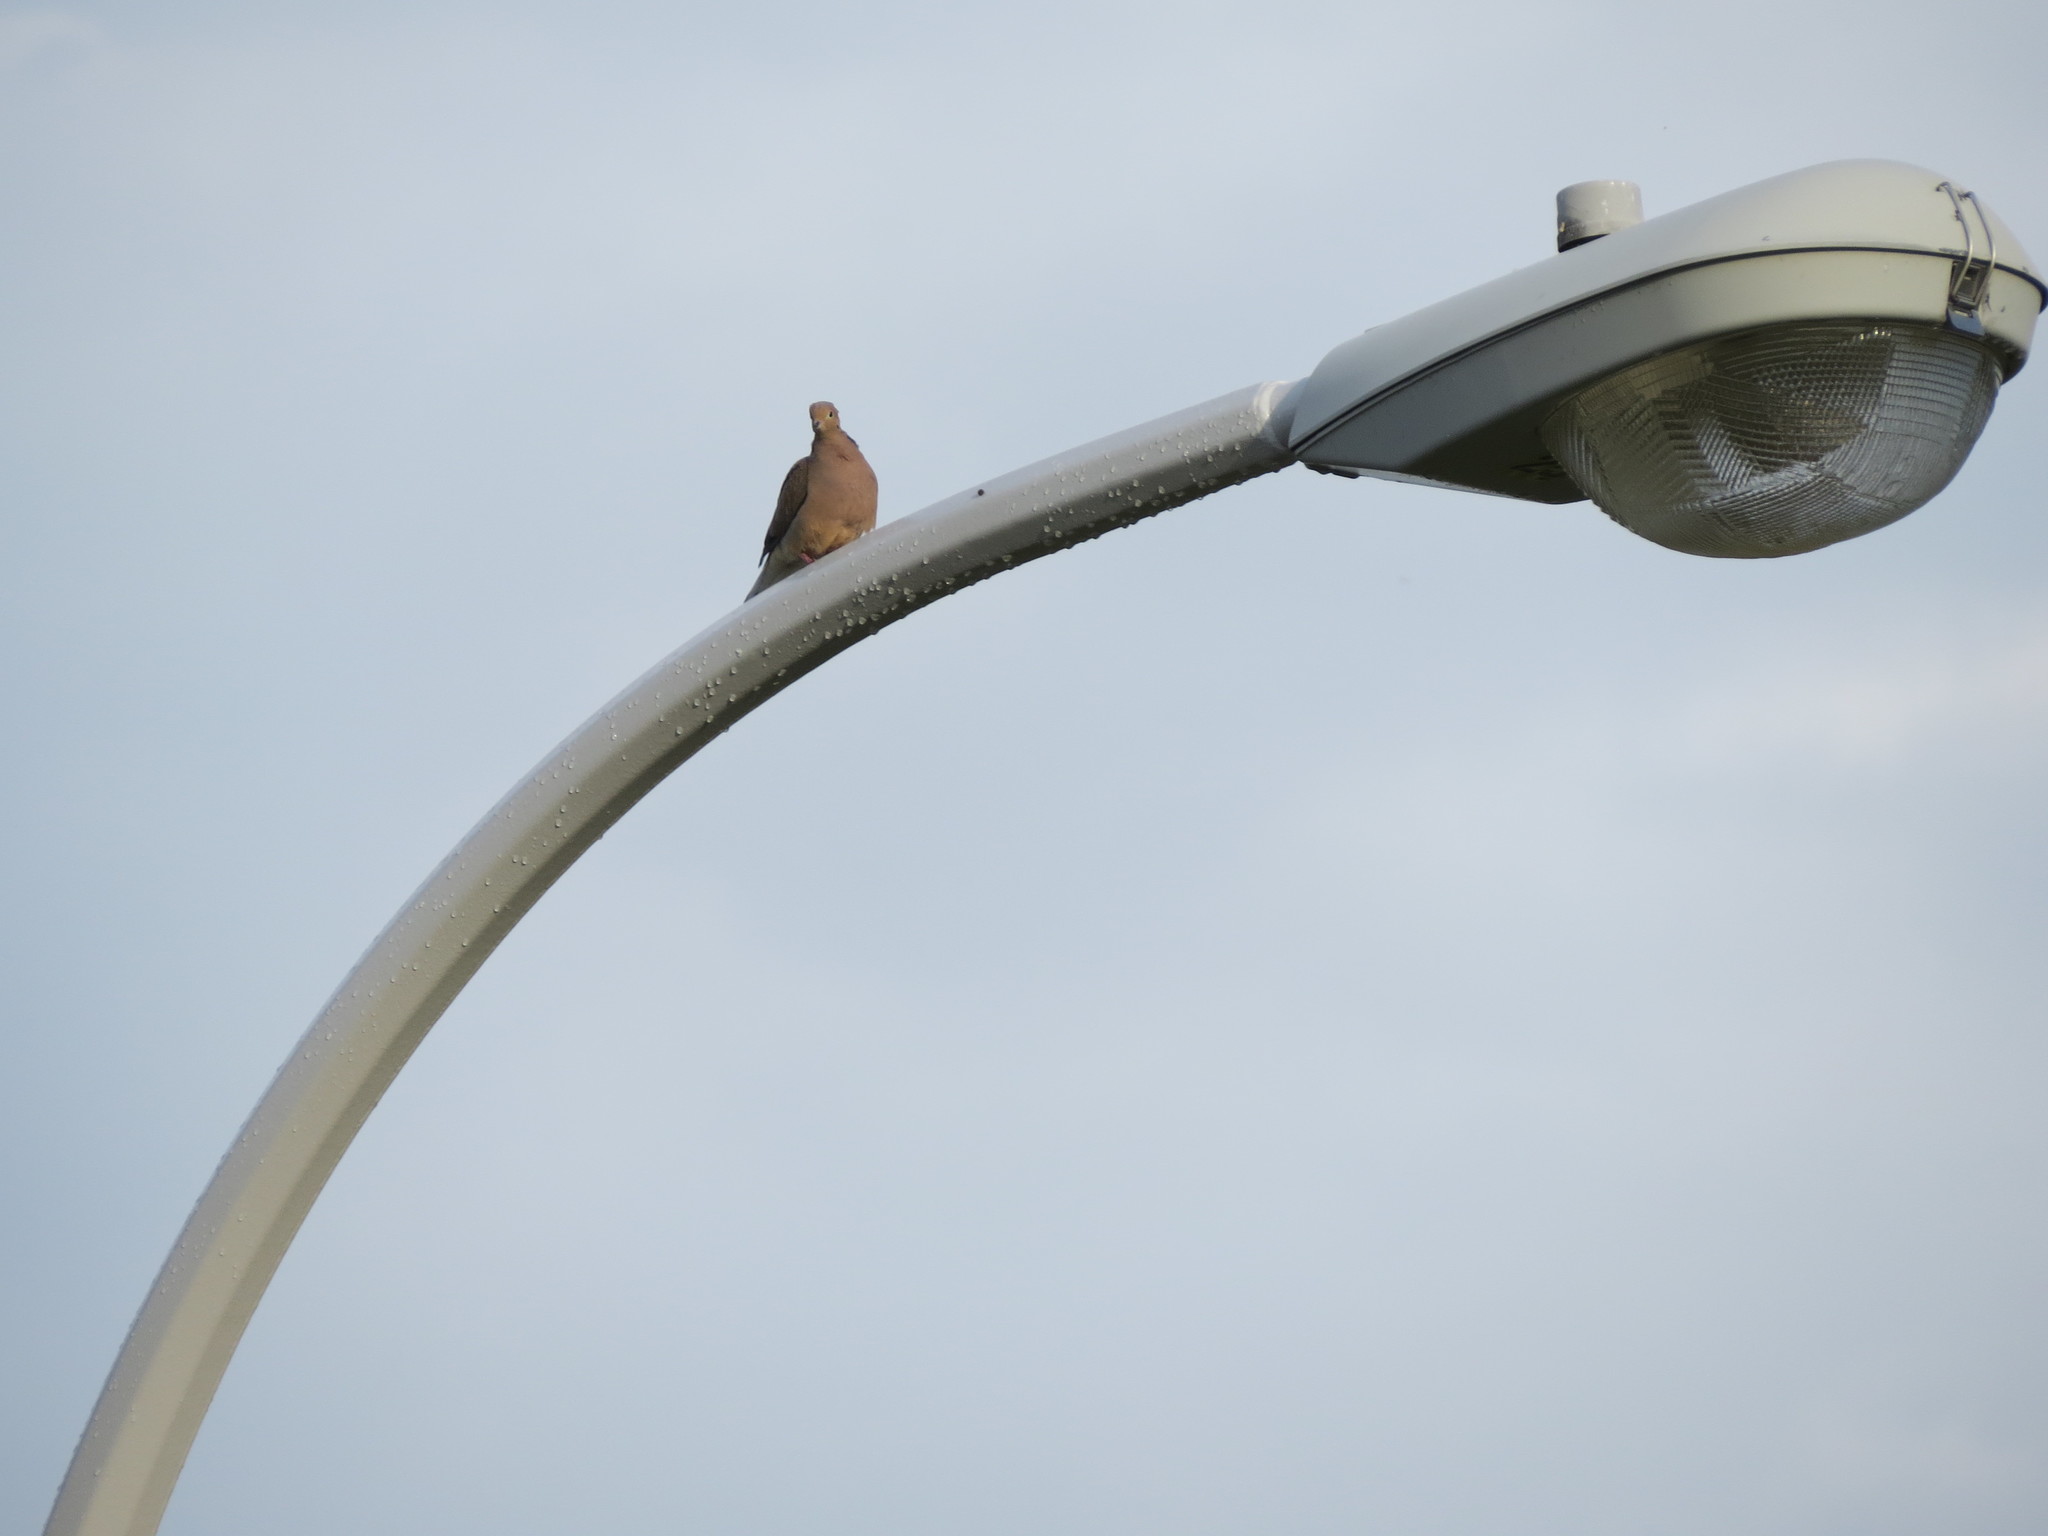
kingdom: Animalia
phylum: Chordata
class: Aves
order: Columbiformes
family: Columbidae
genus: Zenaida
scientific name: Zenaida macroura
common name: Mourning dove
